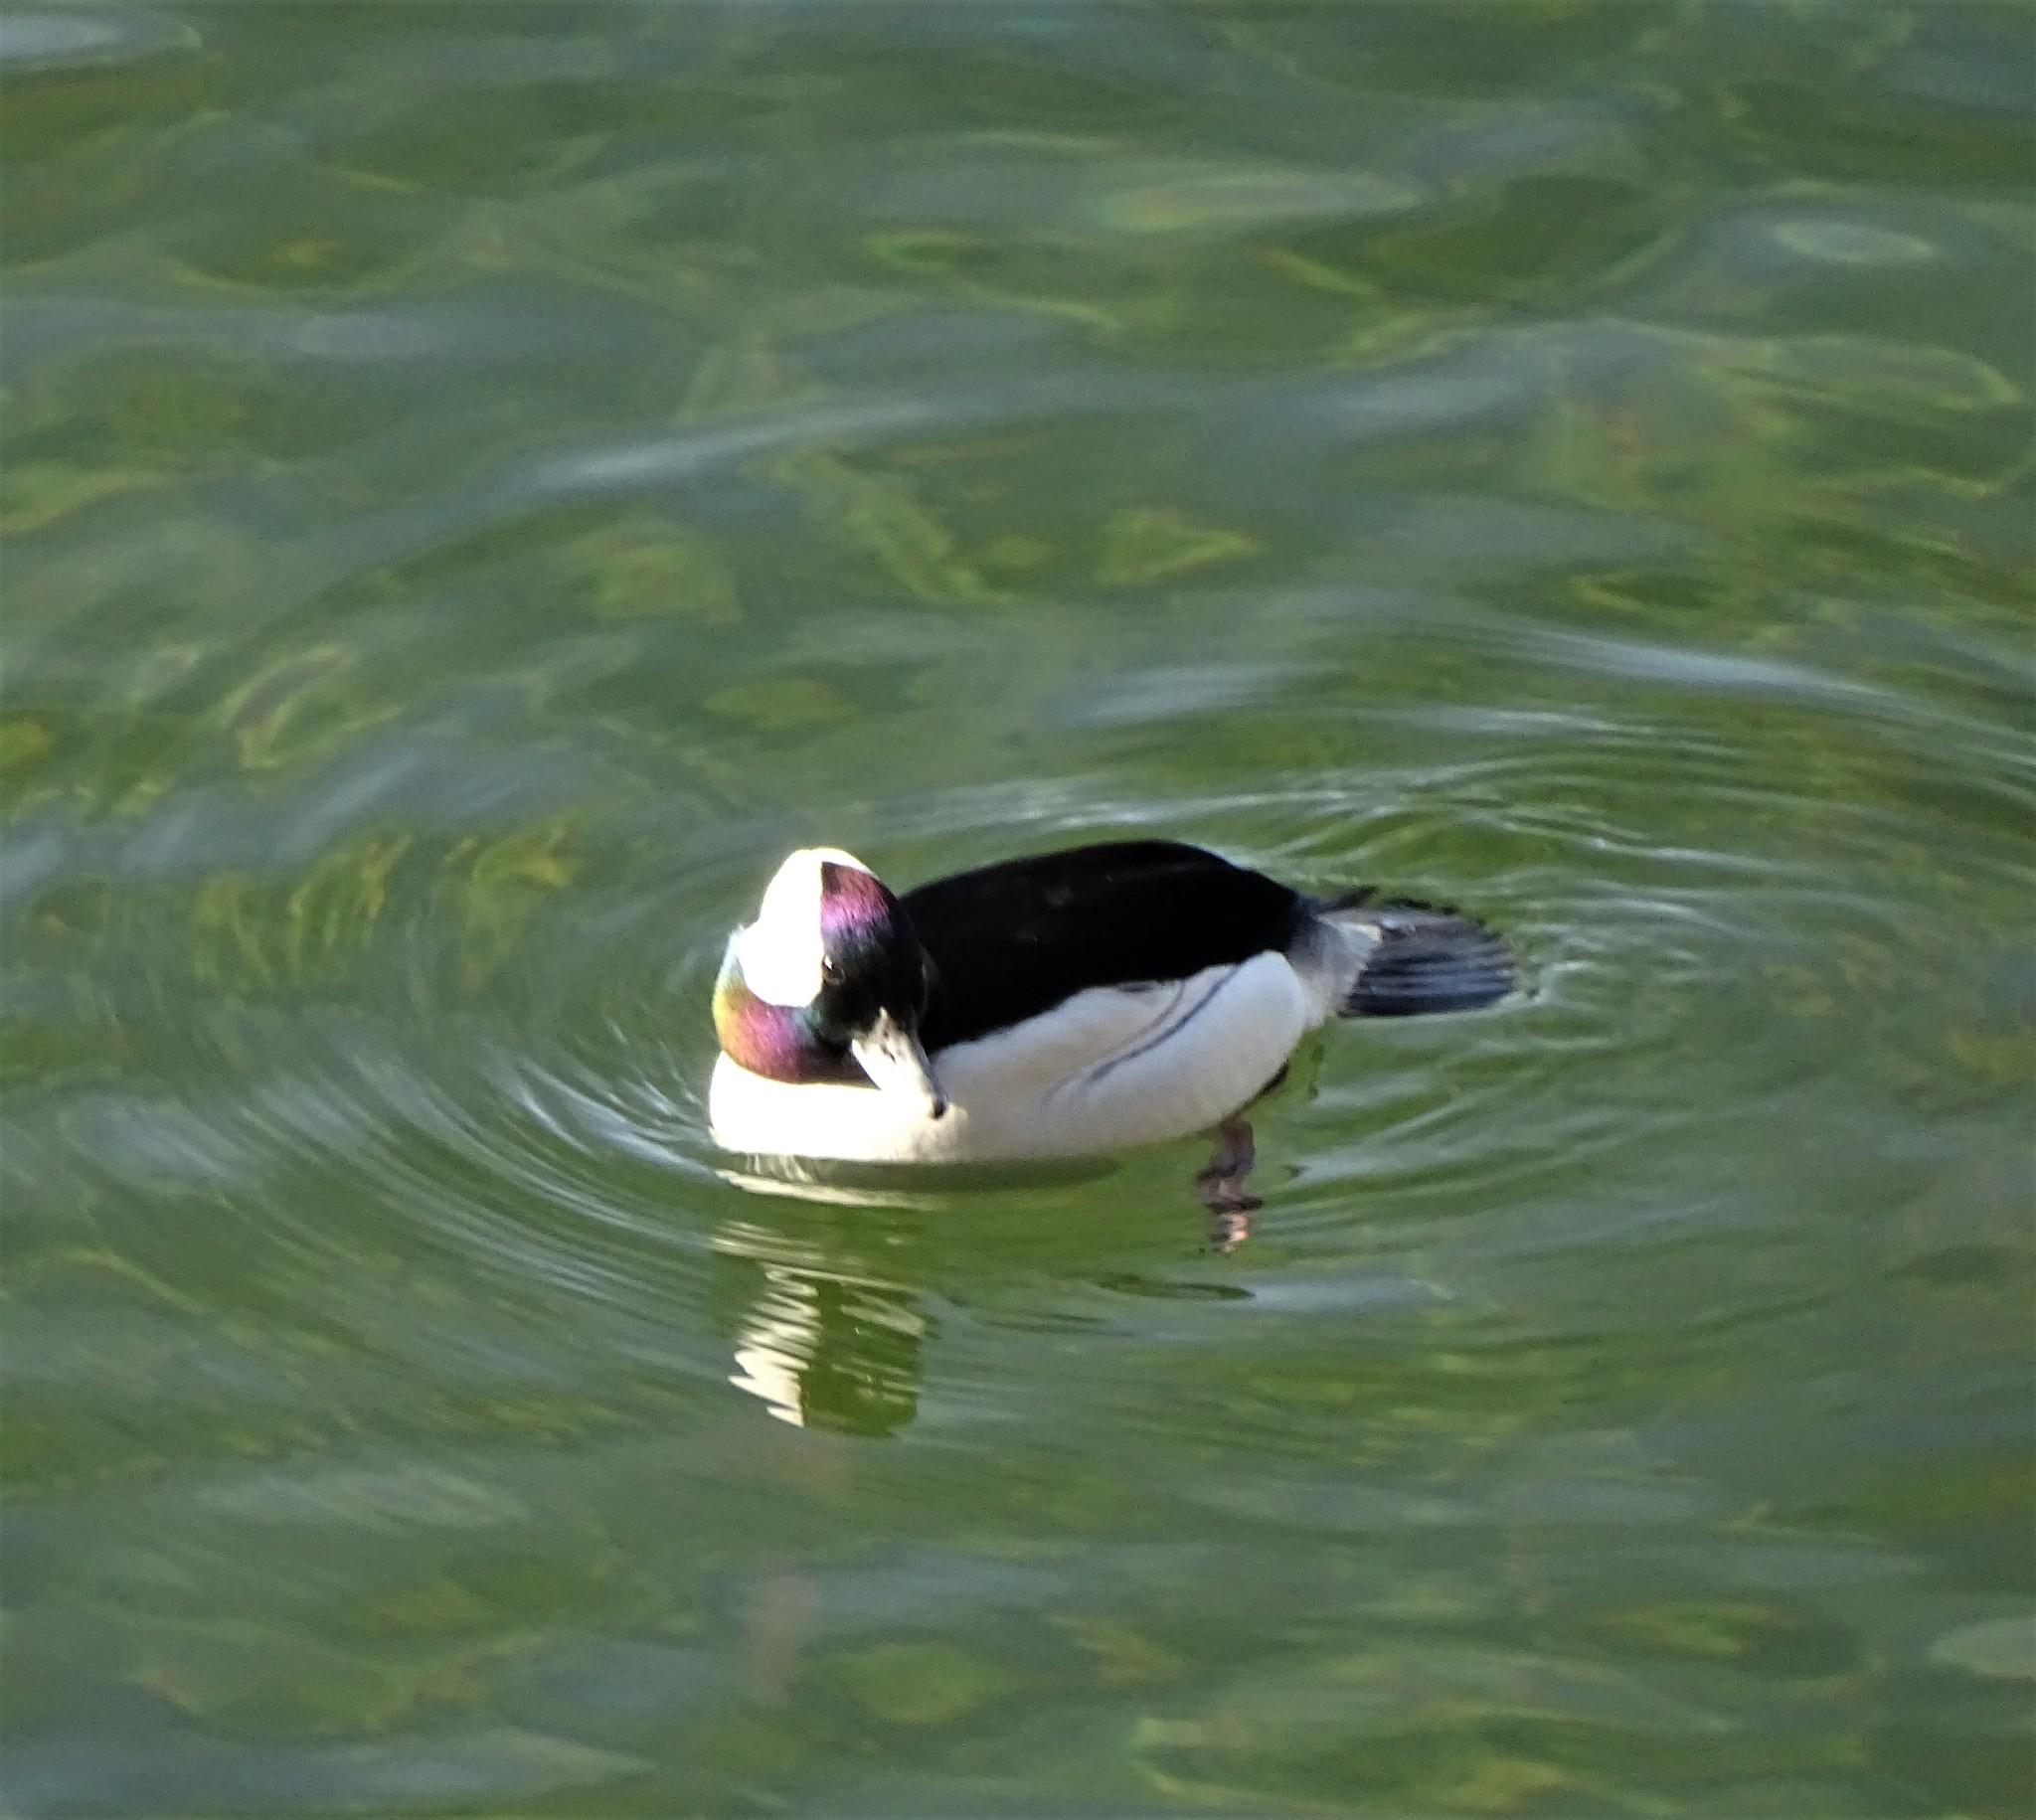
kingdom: Animalia
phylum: Chordata
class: Aves
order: Anseriformes
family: Anatidae
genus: Bucephala
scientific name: Bucephala albeola
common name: Bufflehead
